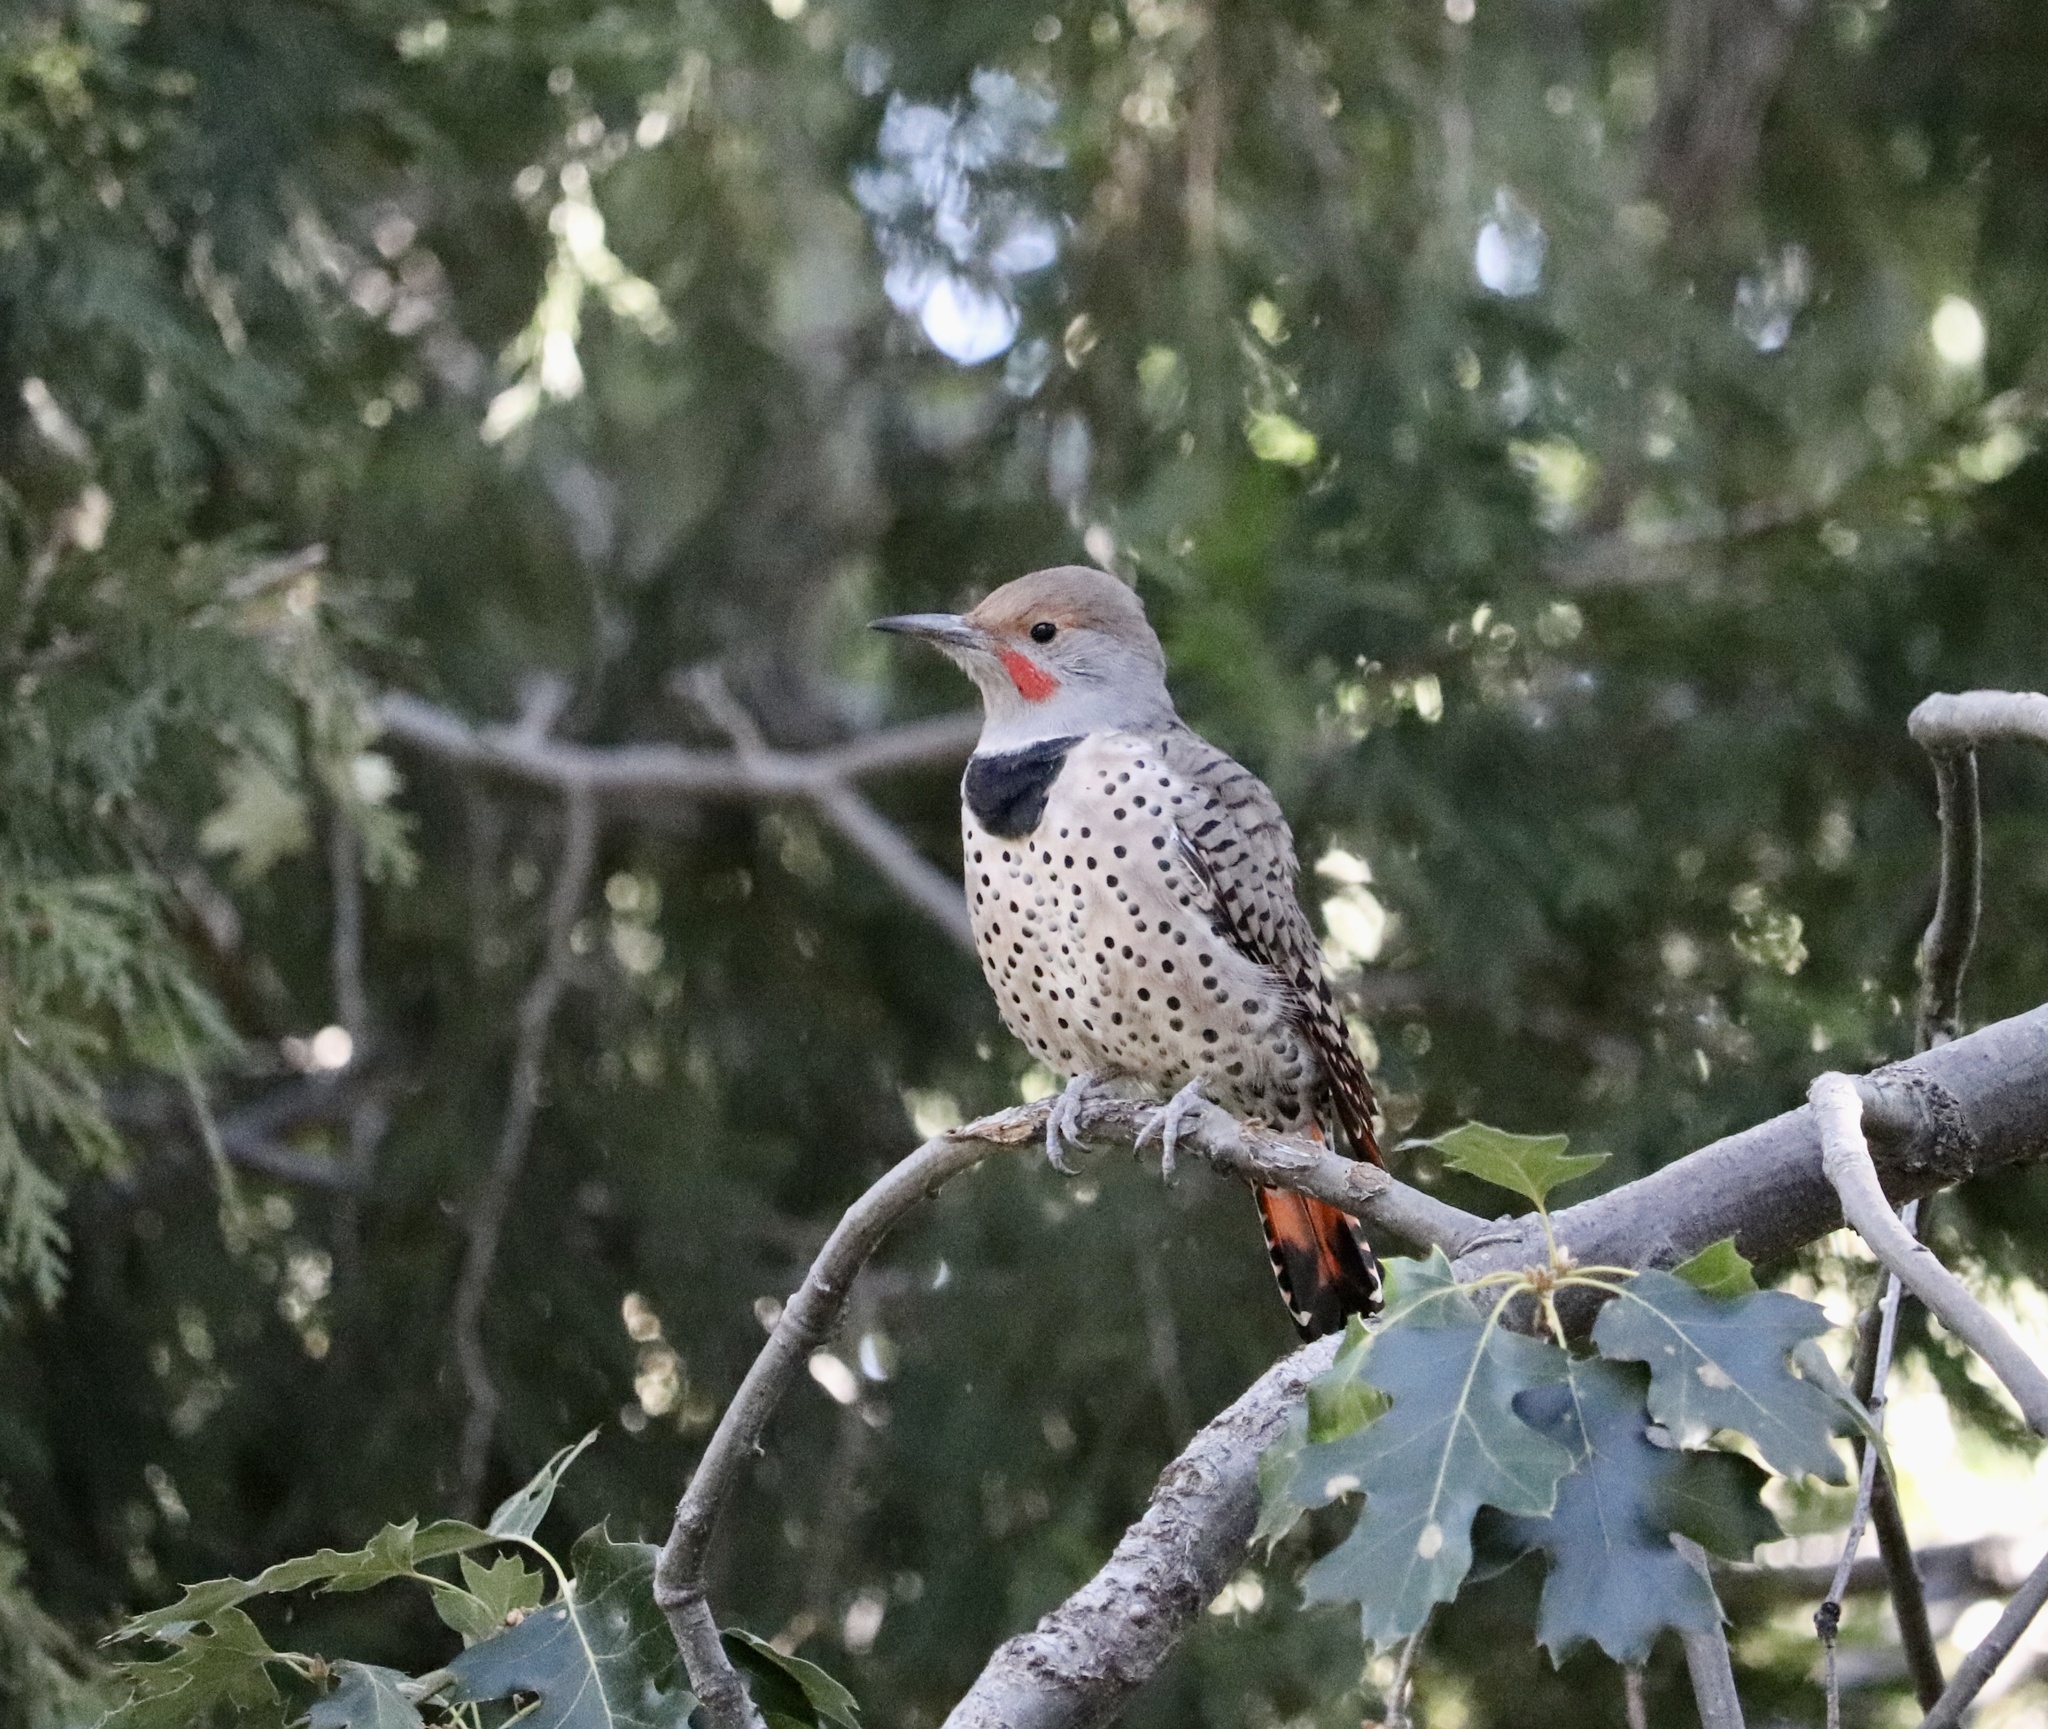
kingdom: Animalia
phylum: Chordata
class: Aves
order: Piciformes
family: Picidae
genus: Colaptes
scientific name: Colaptes auratus
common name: Northern flicker
